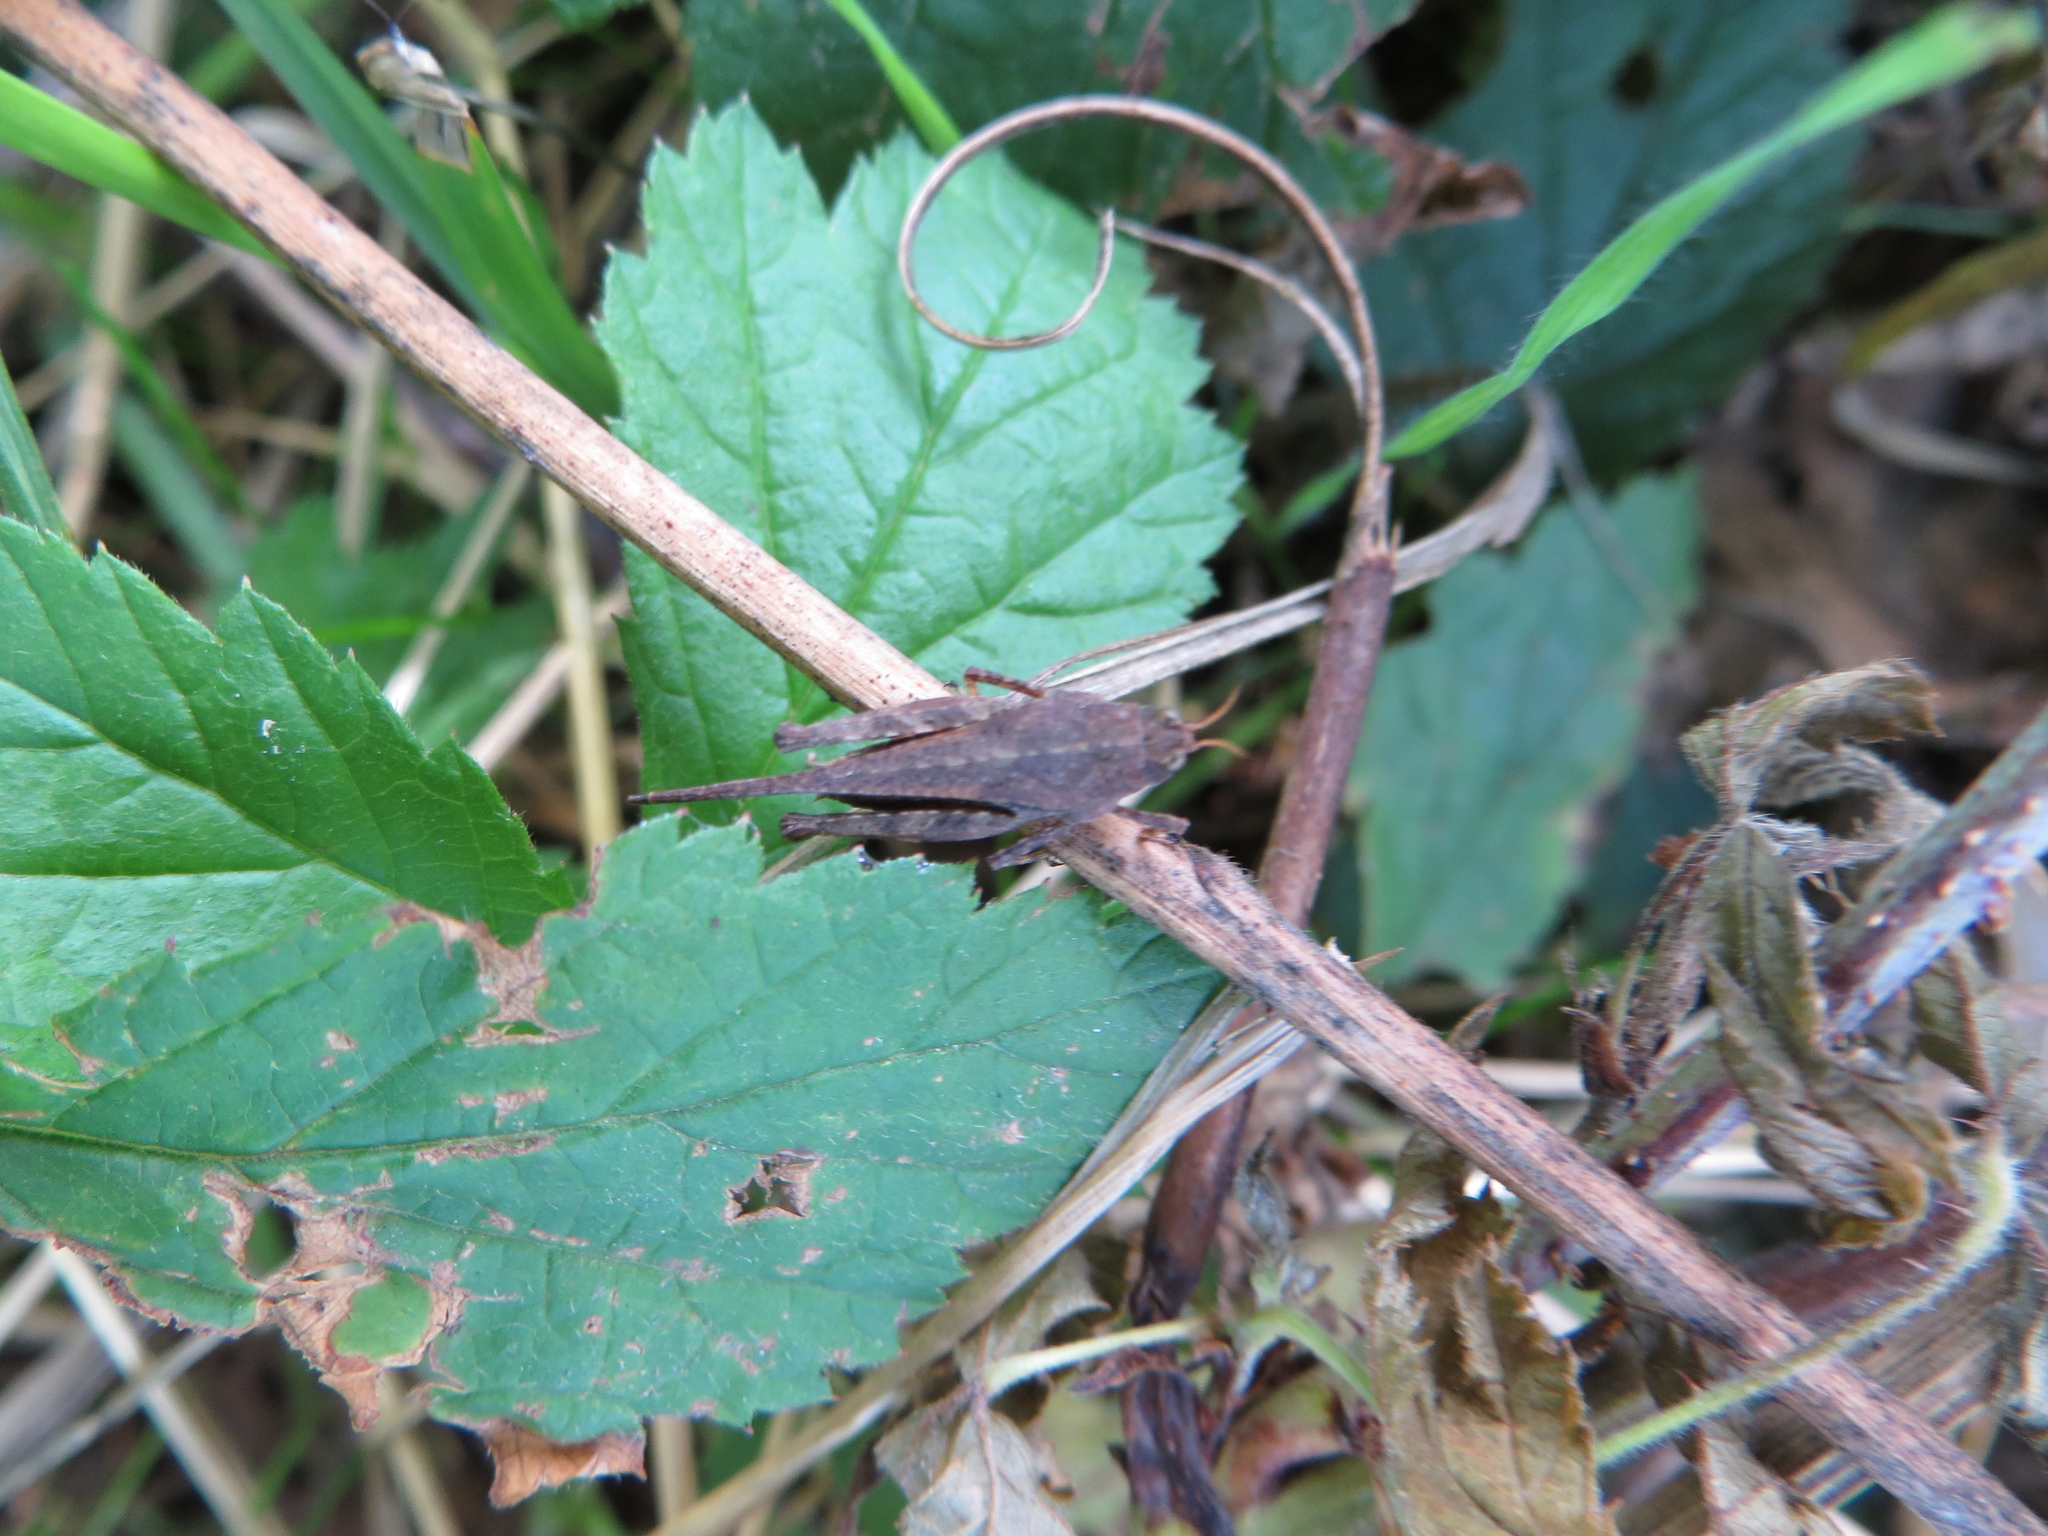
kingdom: Animalia
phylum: Arthropoda
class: Insecta
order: Orthoptera
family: Tetrigidae
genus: Tetrix
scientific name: Tetrix subulata
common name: Slender ground-hopper
